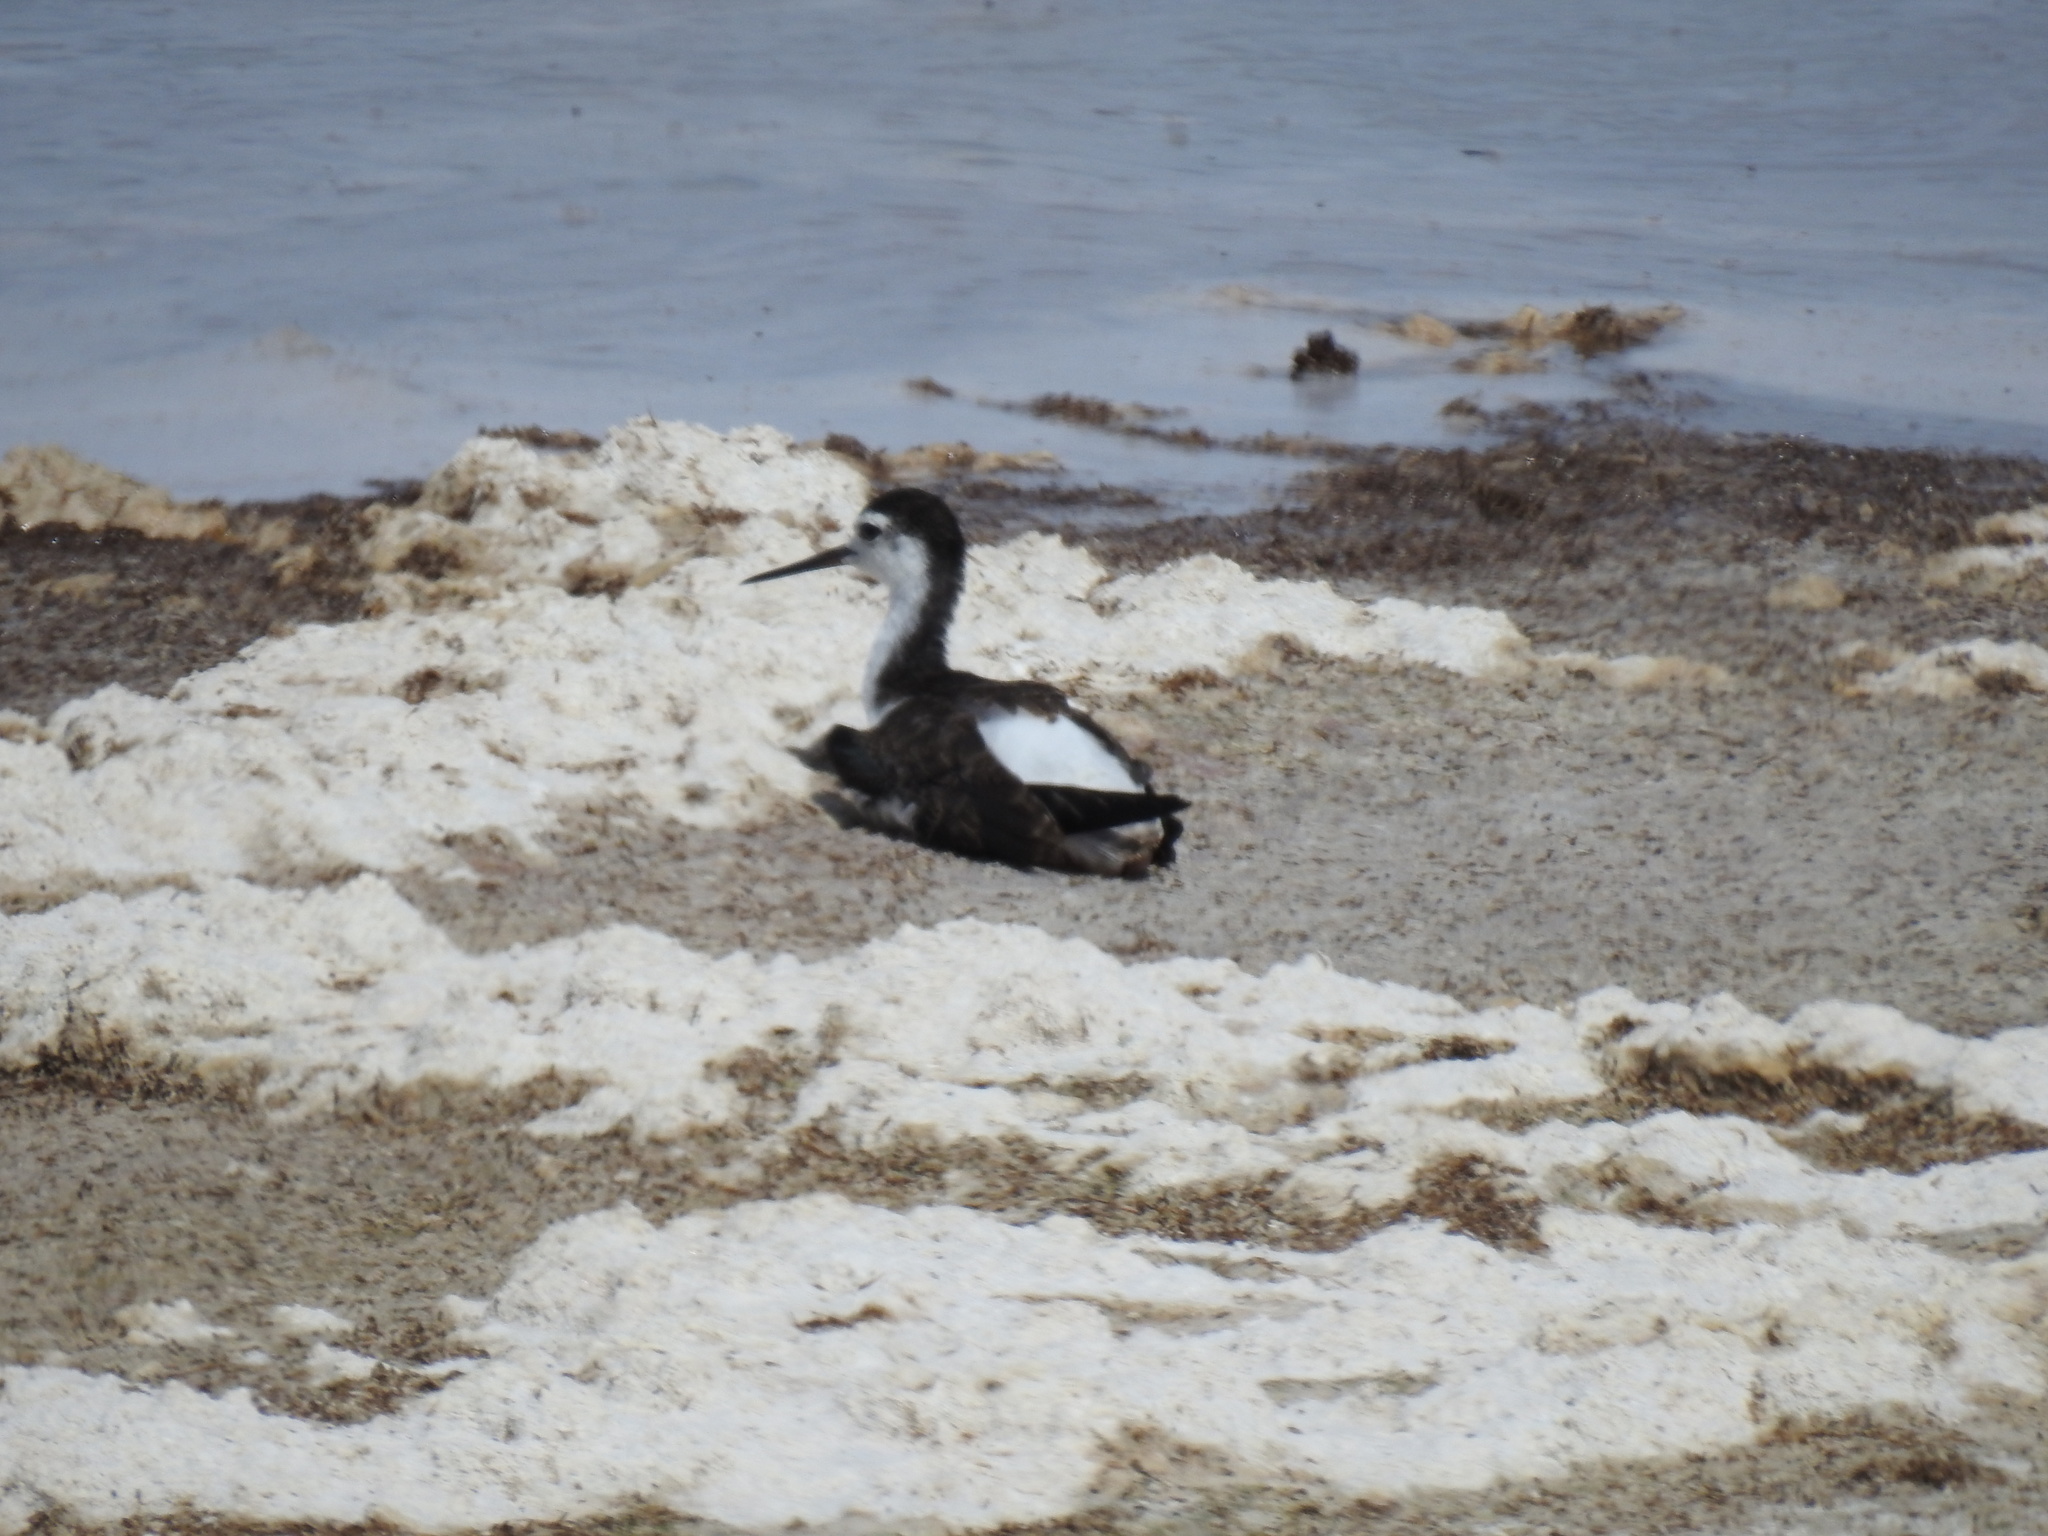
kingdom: Animalia
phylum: Chordata
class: Aves
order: Charadriiformes
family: Recurvirostridae
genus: Himantopus
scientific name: Himantopus mexicanus
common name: Black-necked stilt
